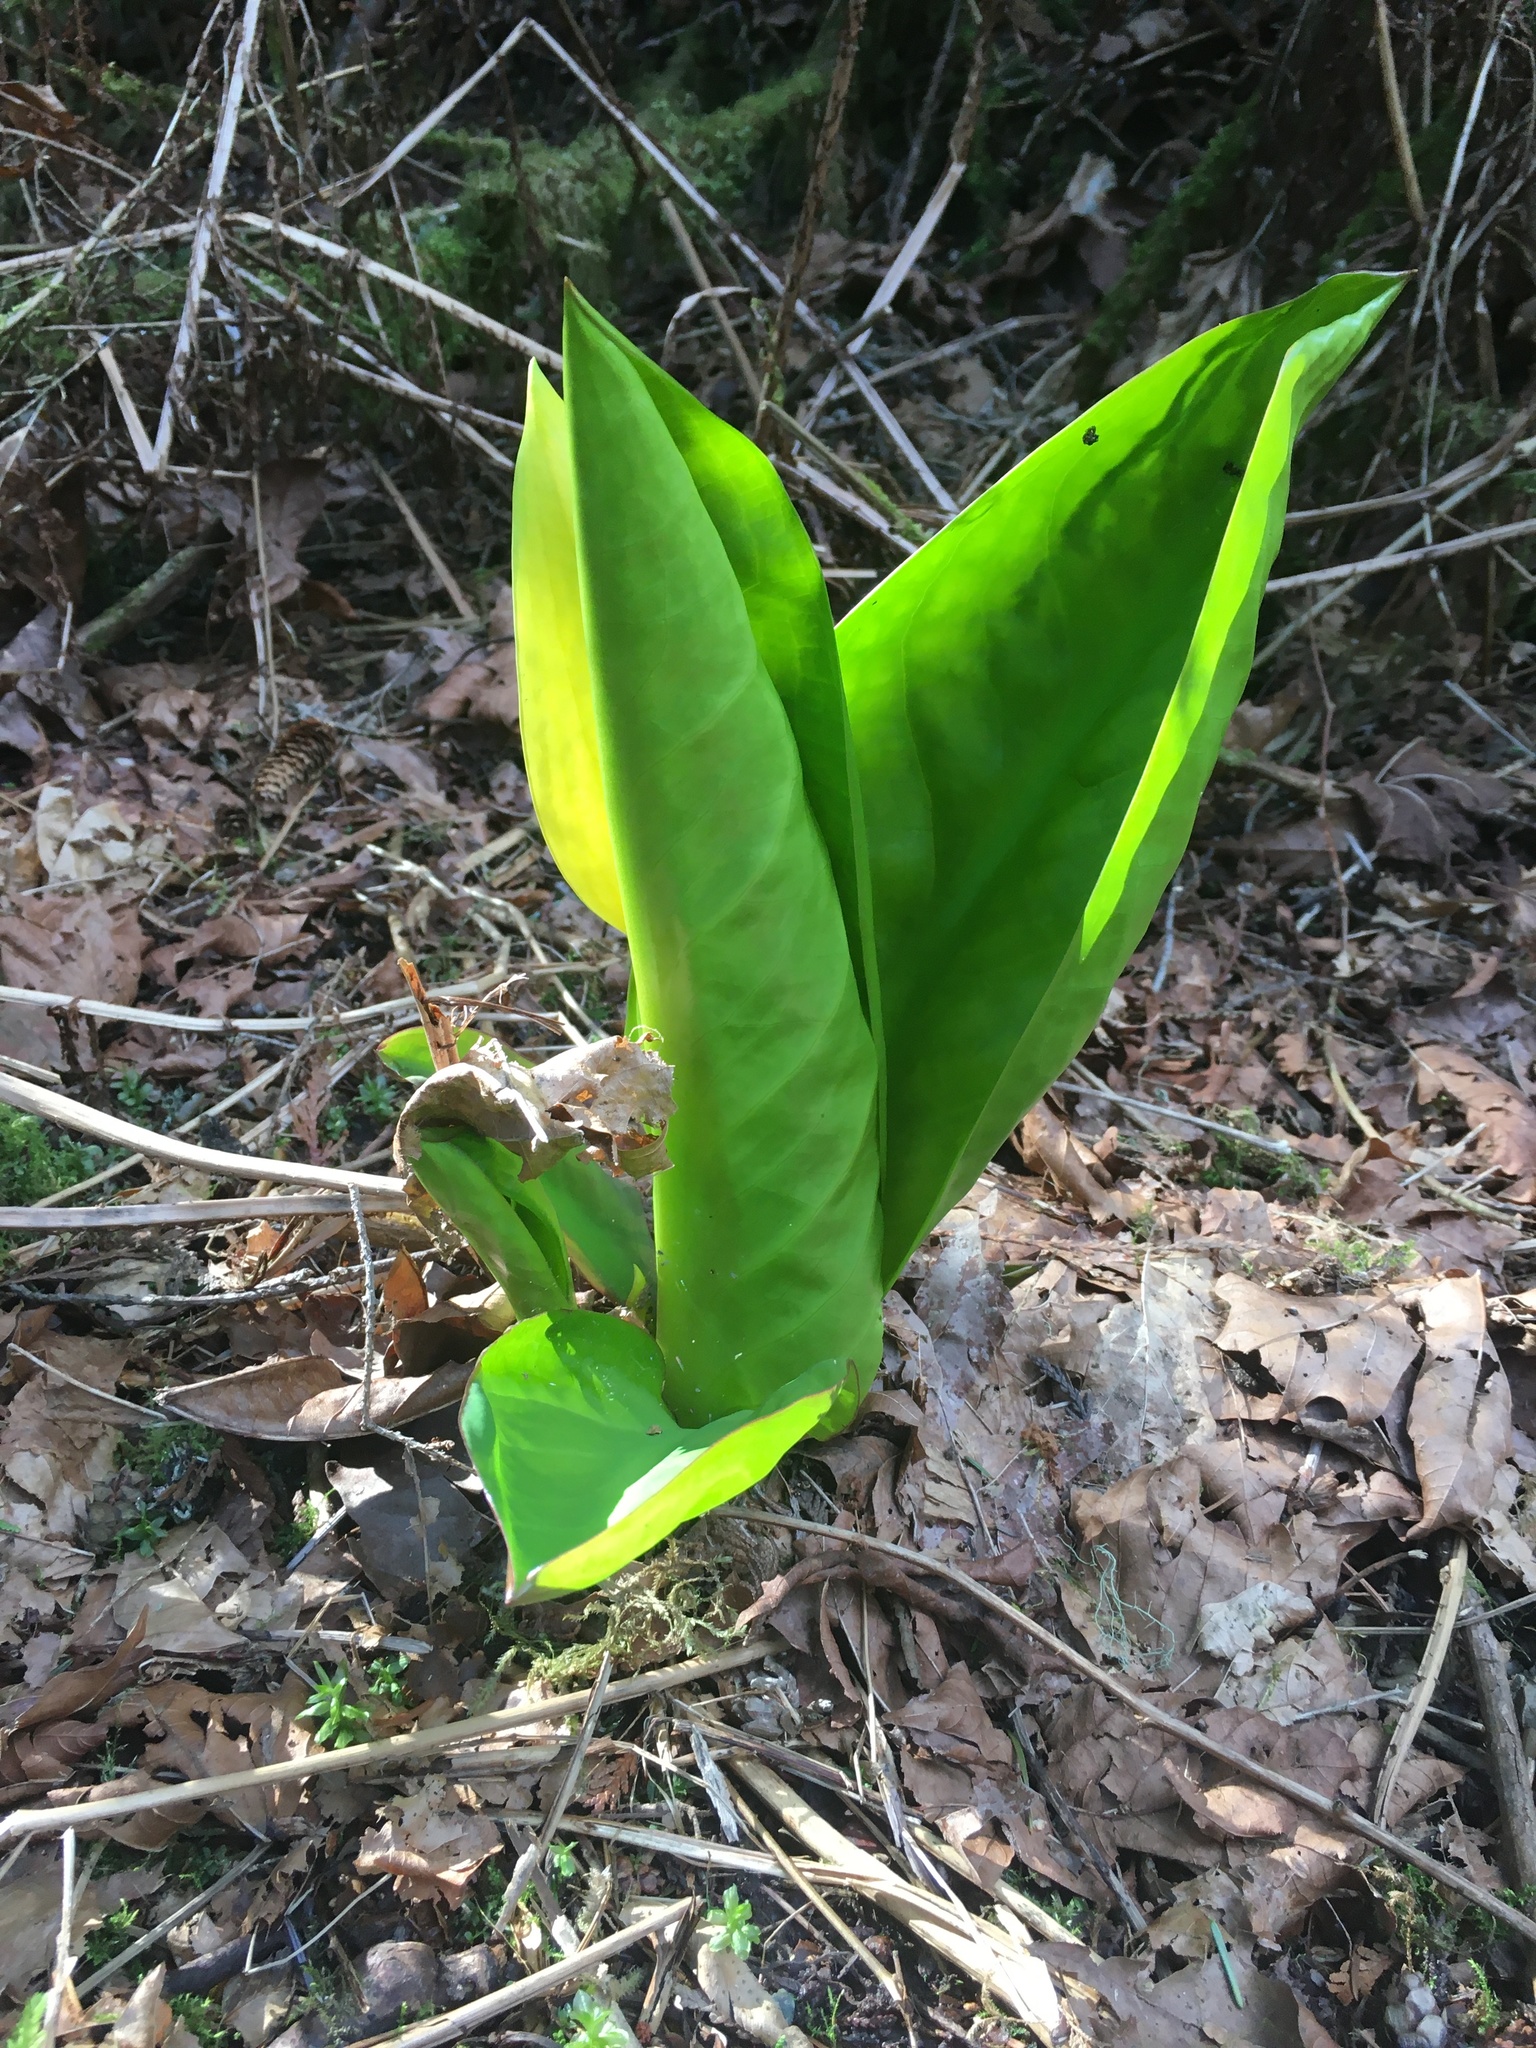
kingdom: Plantae
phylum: Tracheophyta
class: Liliopsida
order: Alismatales
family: Araceae
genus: Lysichiton
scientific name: Lysichiton americanus
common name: American skunk cabbage
